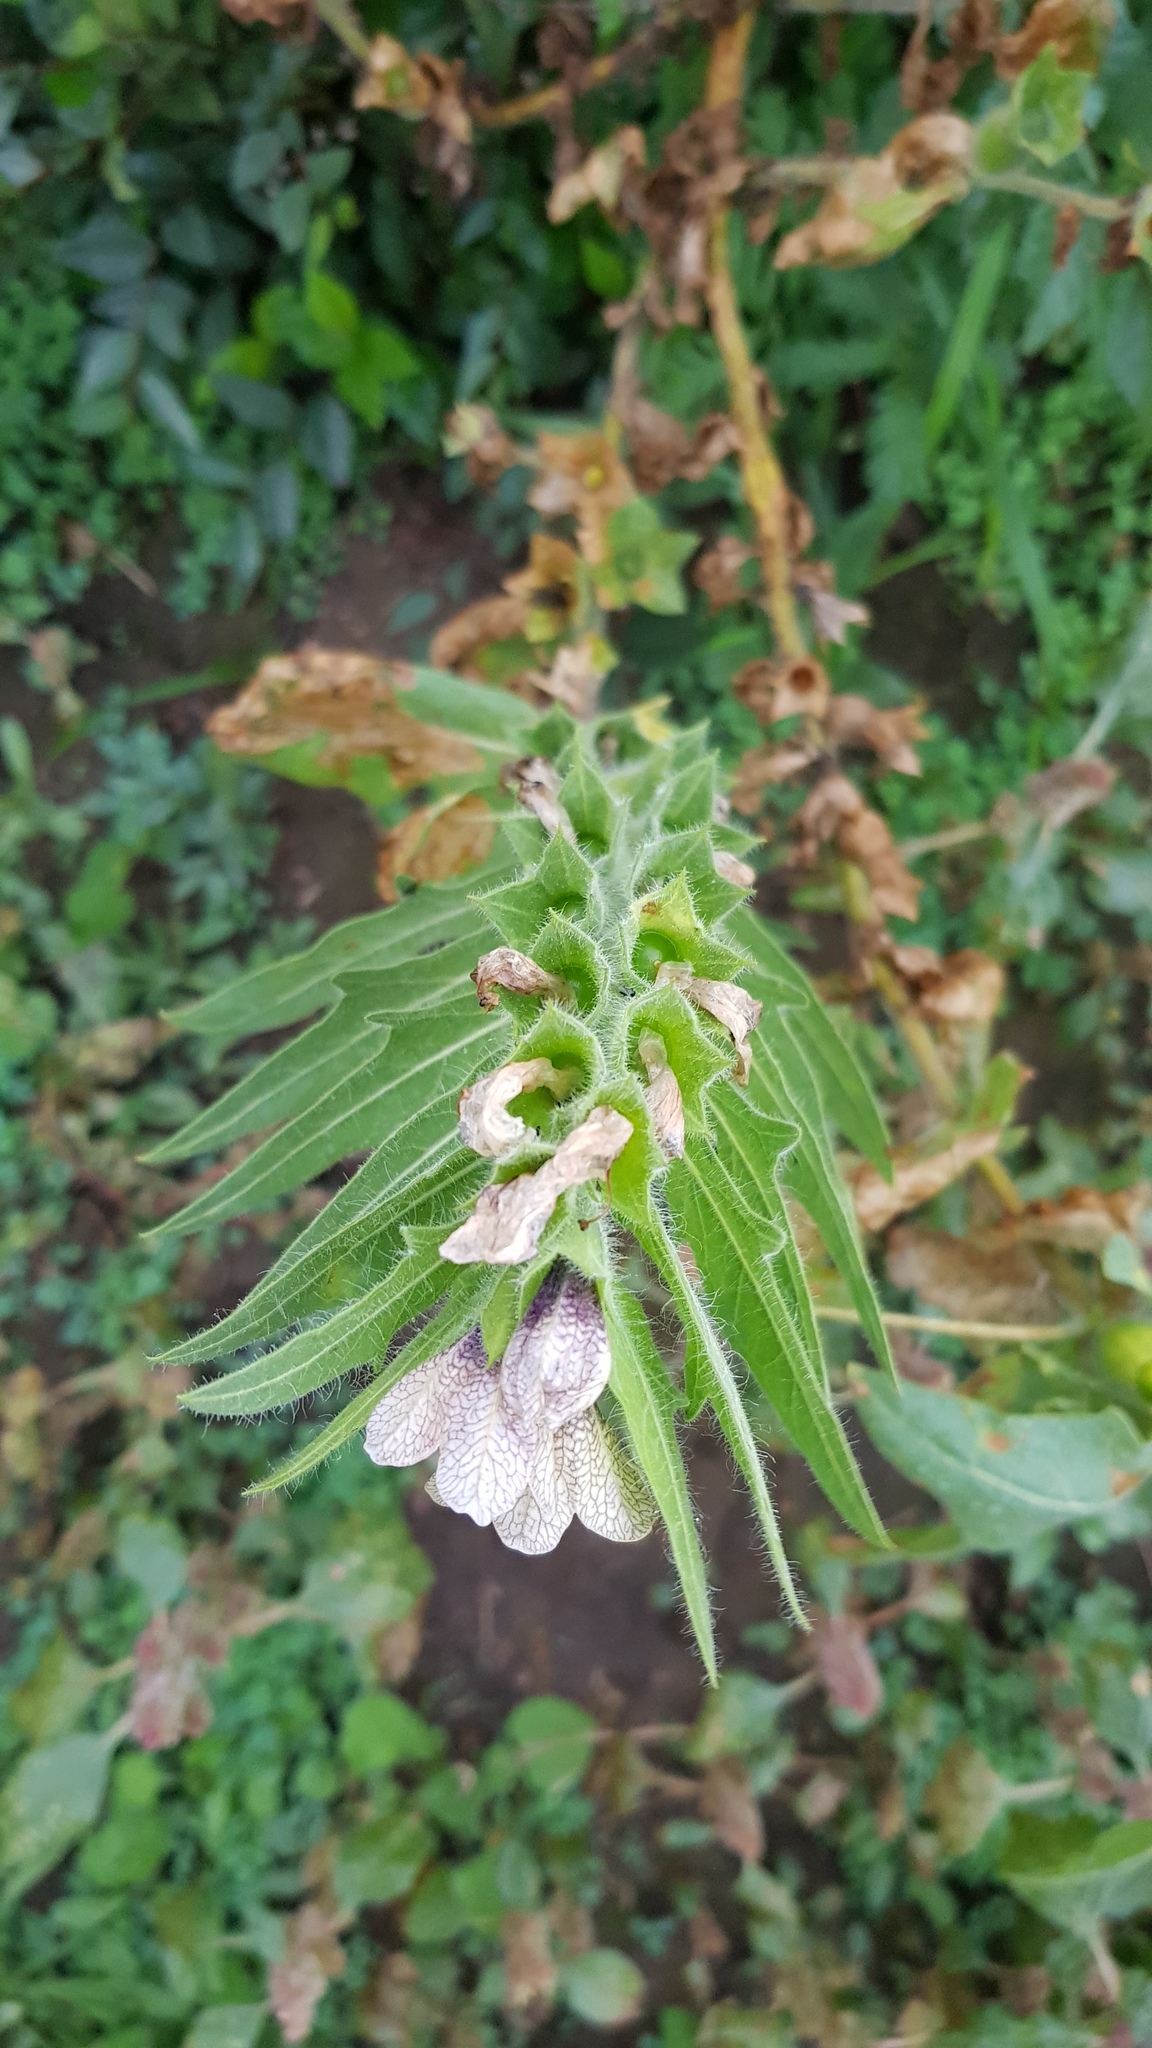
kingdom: Plantae
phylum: Tracheophyta
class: Magnoliopsida
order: Solanales
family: Solanaceae
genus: Hyoscyamus
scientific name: Hyoscyamus niger
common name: Henbane
